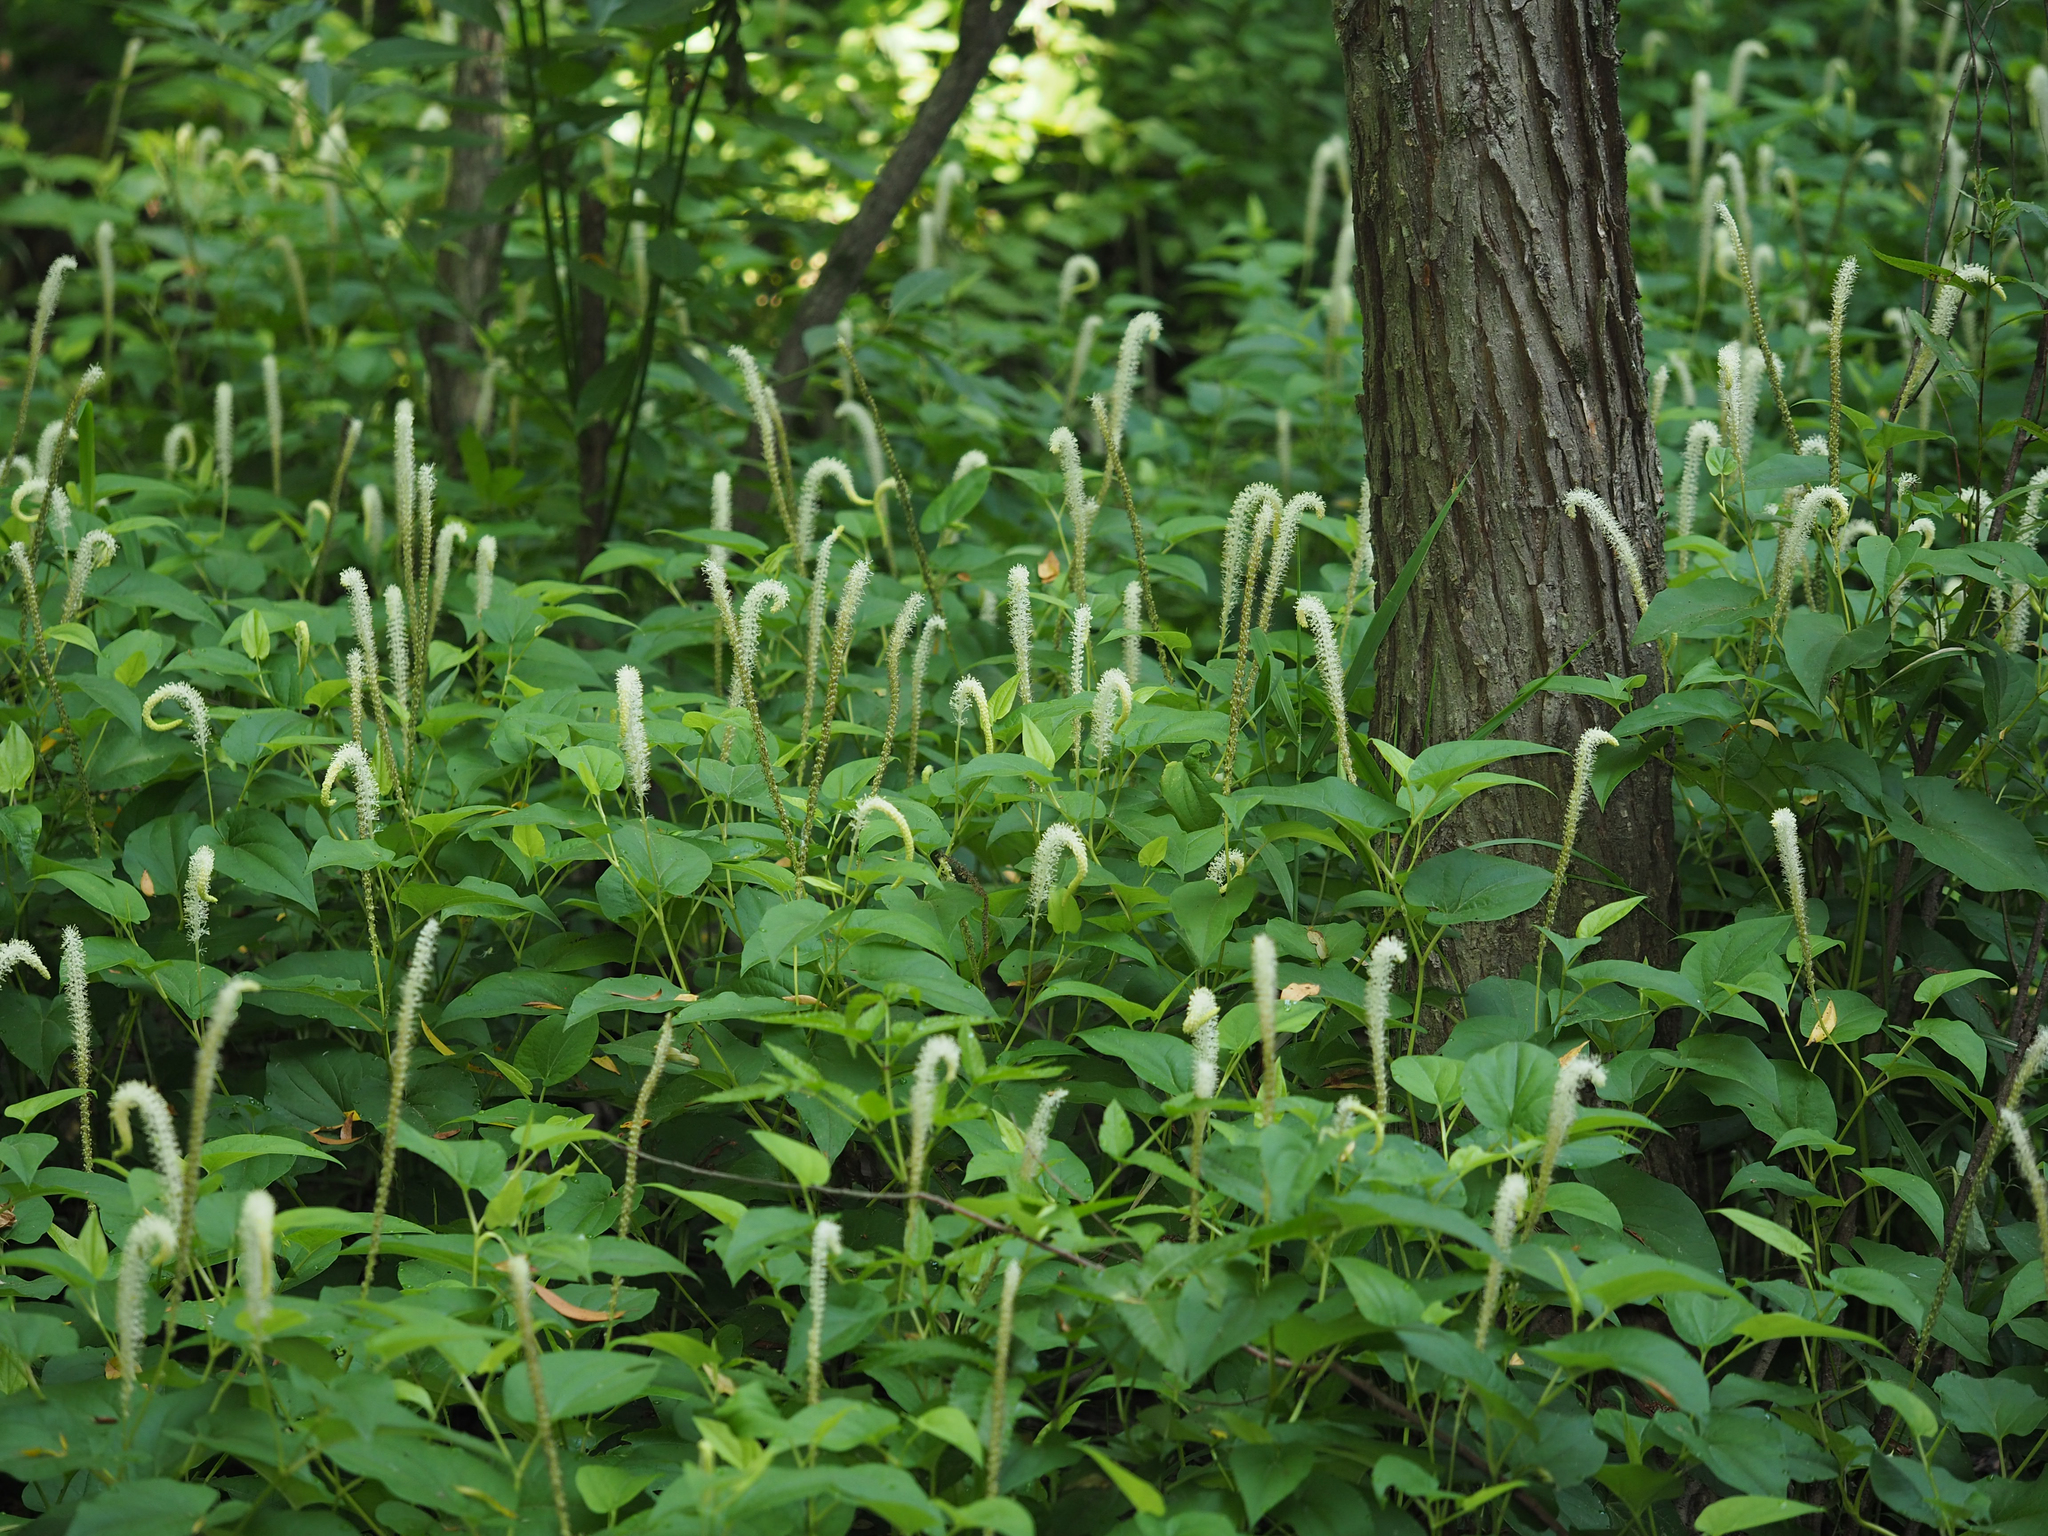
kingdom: Plantae
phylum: Tracheophyta
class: Magnoliopsida
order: Piperales
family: Saururaceae
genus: Saururus
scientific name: Saururus cernuus
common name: Lizard's-tail
